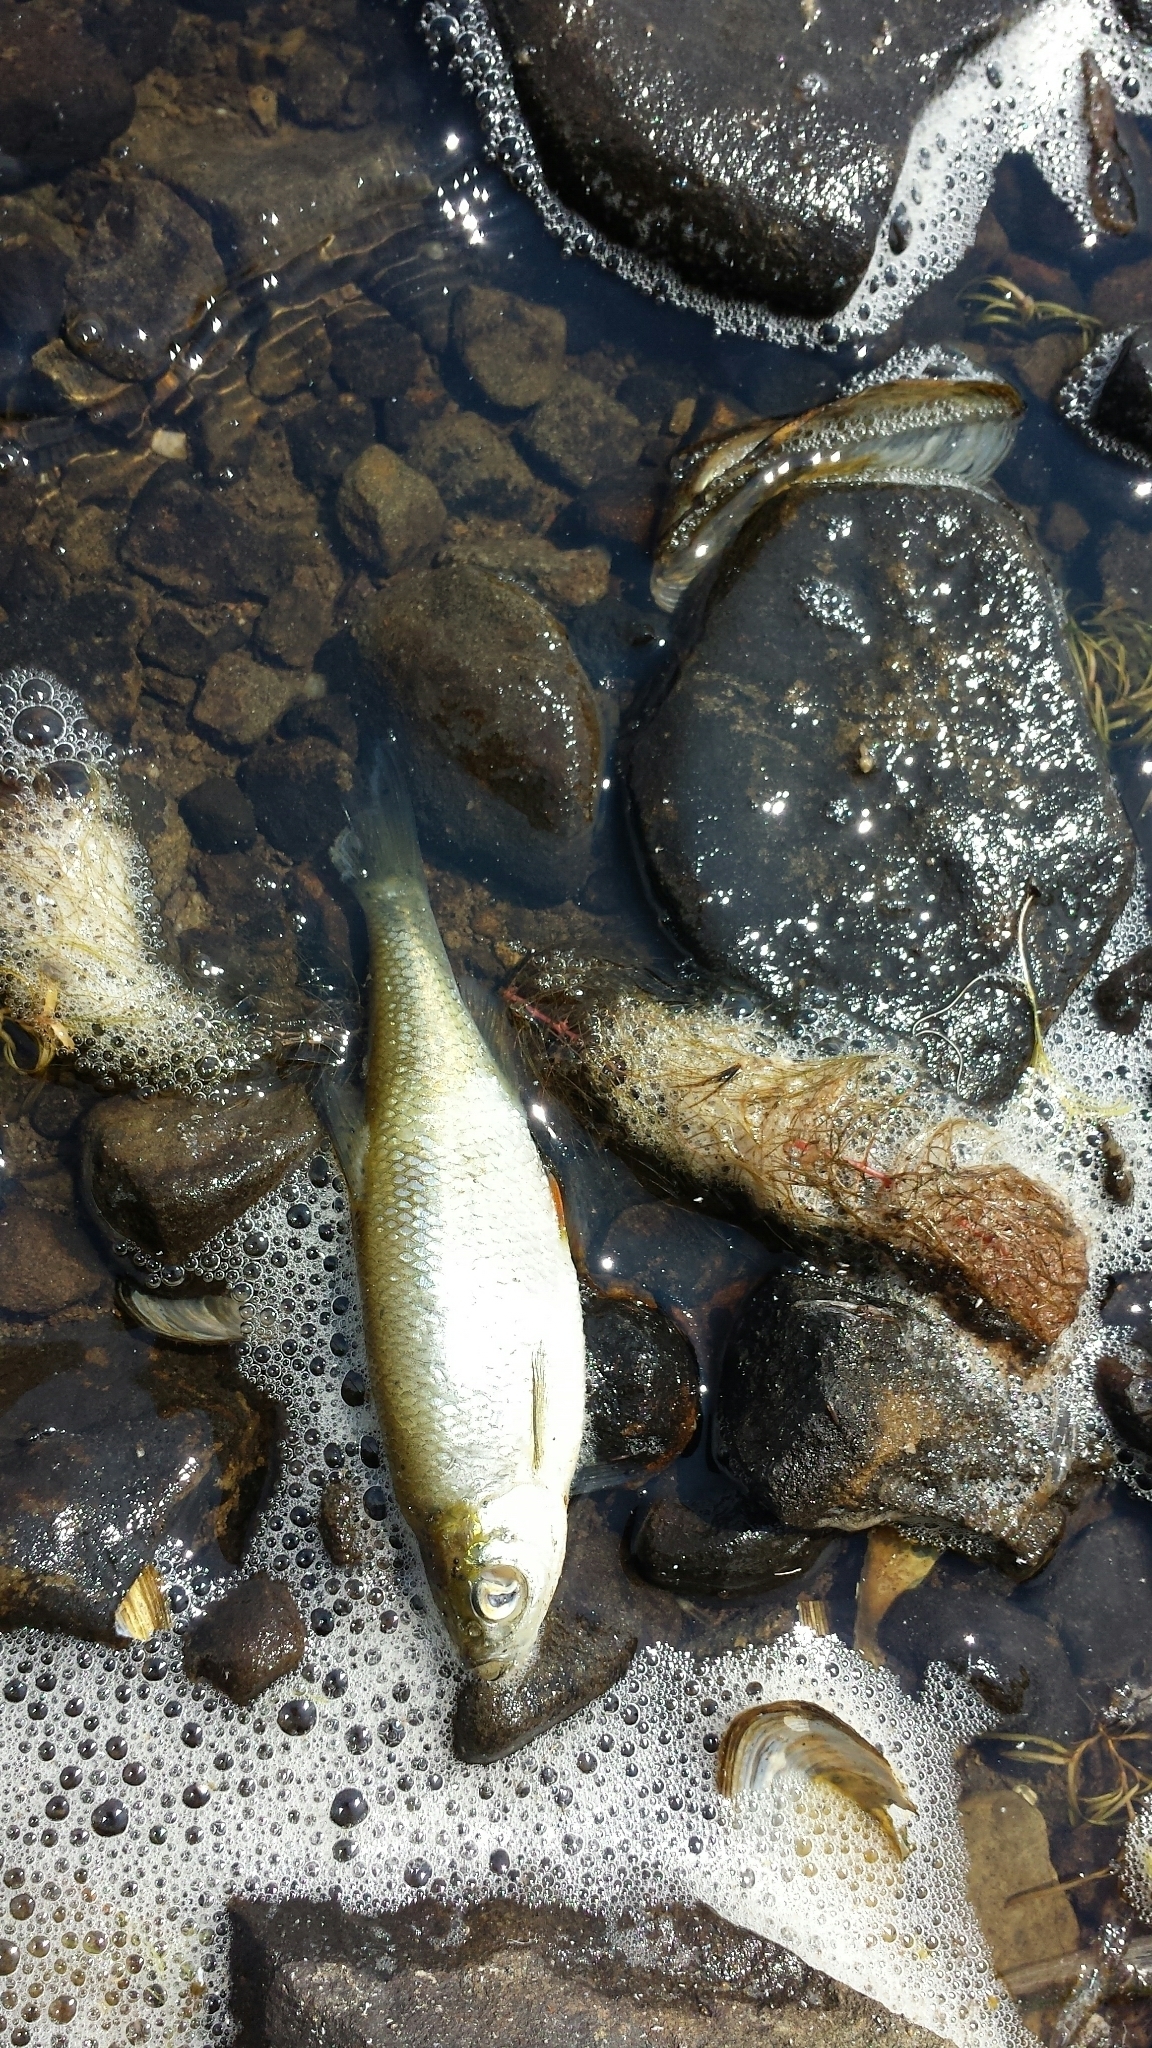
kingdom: Animalia
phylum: Chordata
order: Cypriniformes
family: Cyprinidae
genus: Notemigonus
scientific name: Notemigonus crysoleucas
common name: Golden shiner
